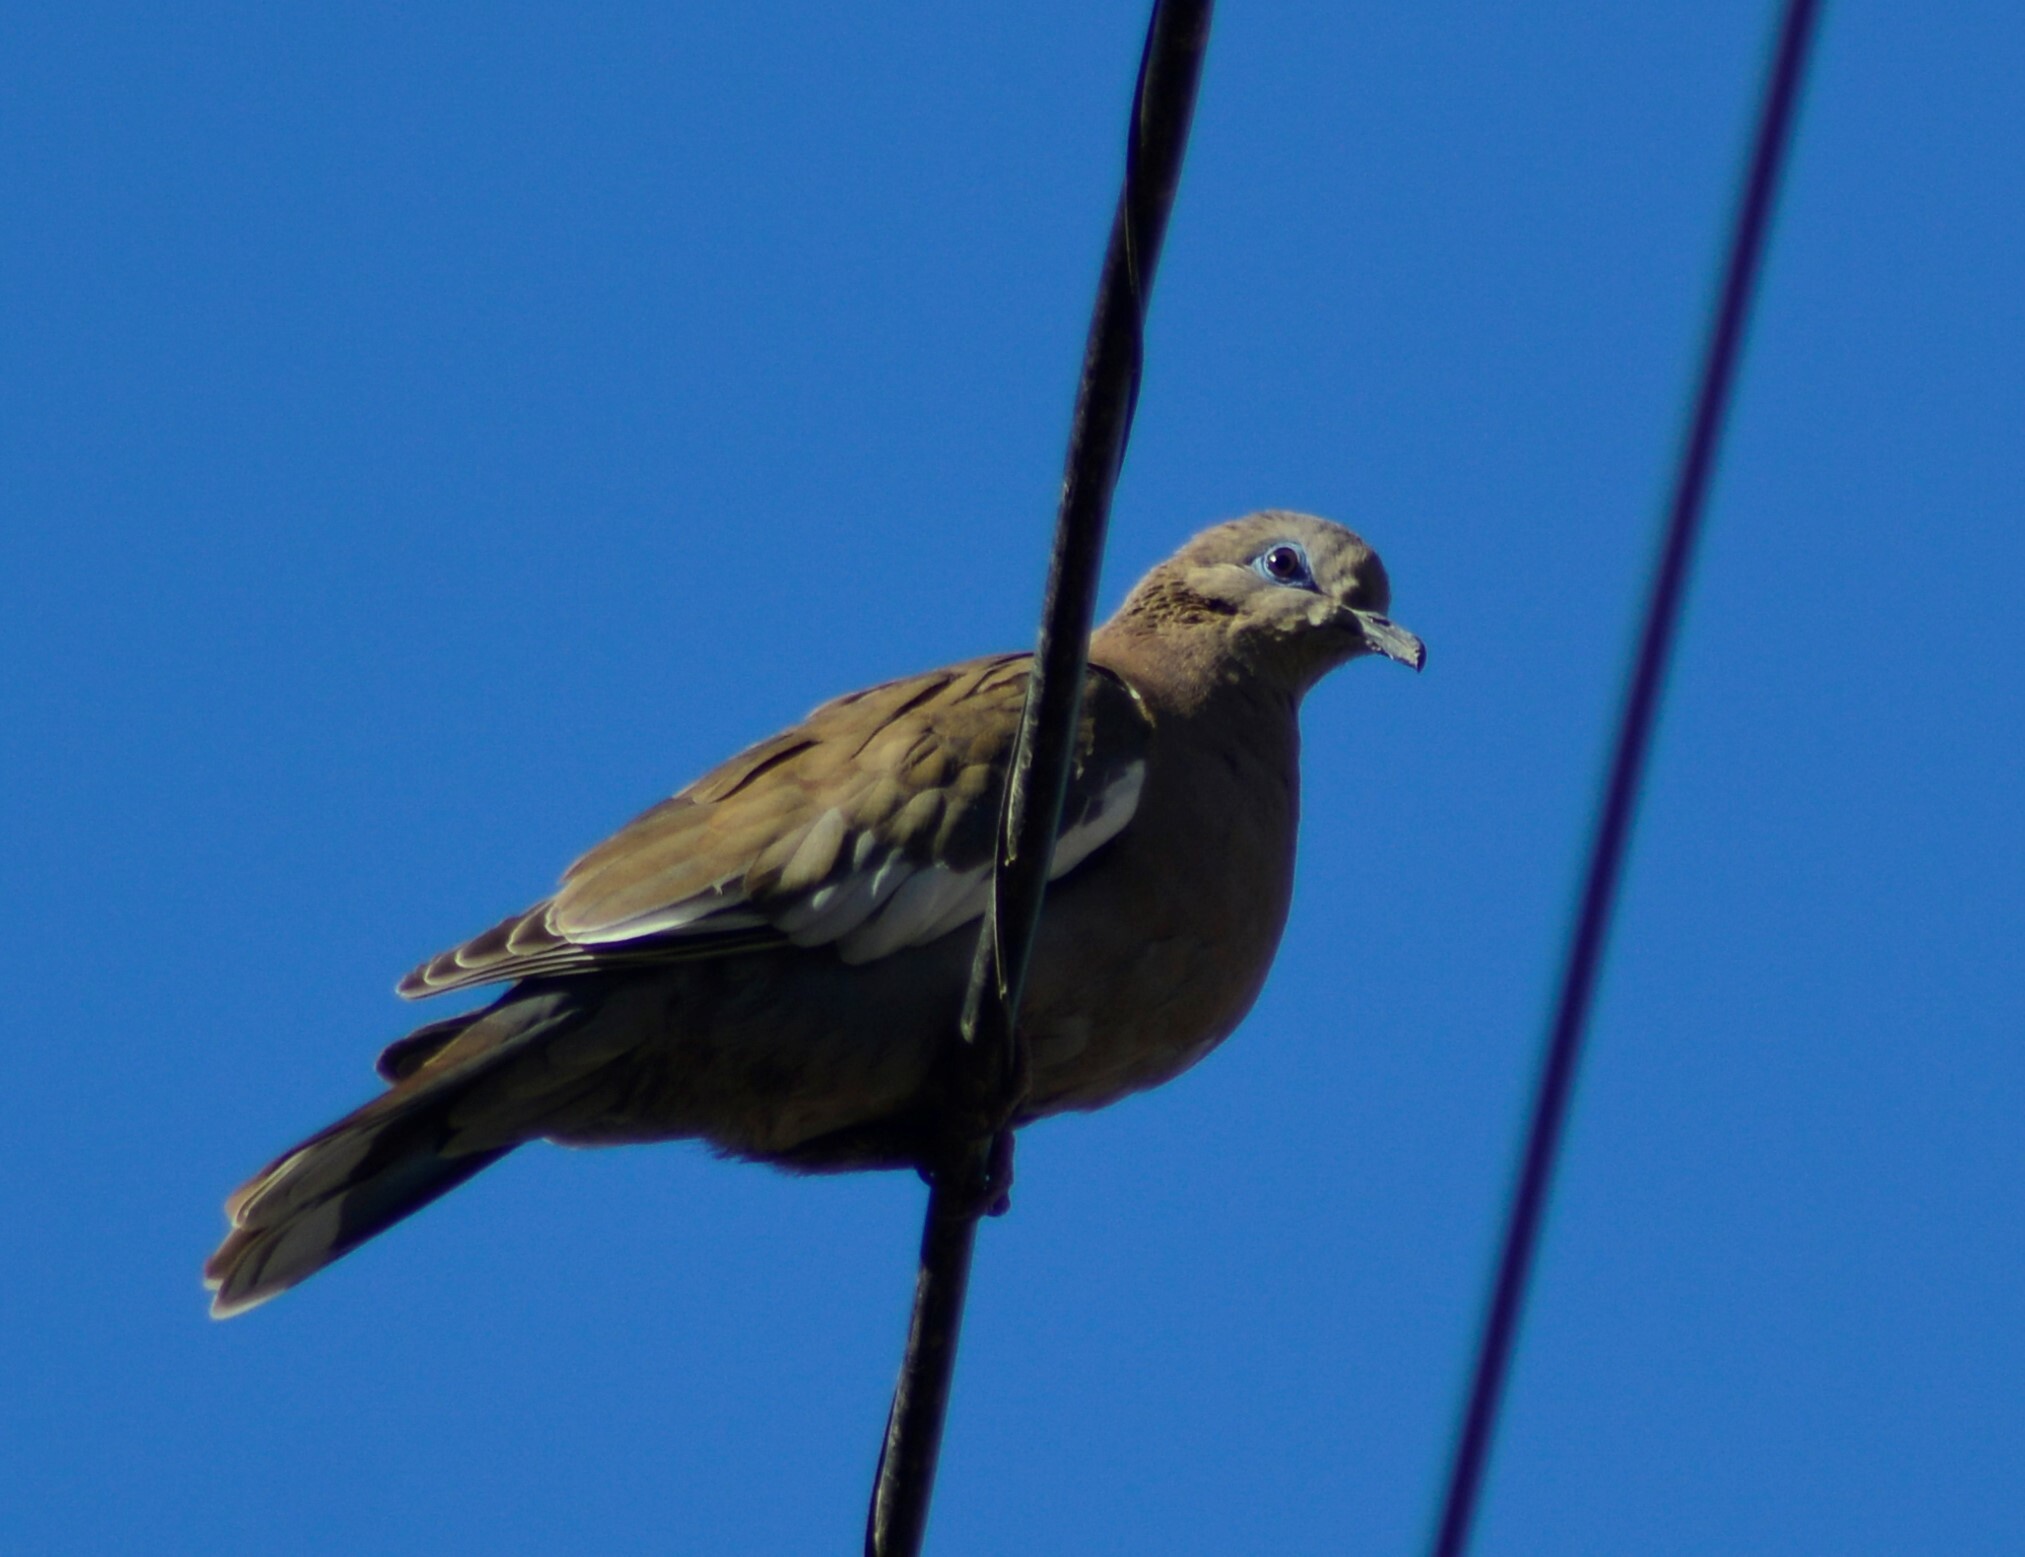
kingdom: Animalia
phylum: Chordata
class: Aves
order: Columbiformes
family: Columbidae
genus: Zenaida
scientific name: Zenaida meloda
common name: West peruvian dove
